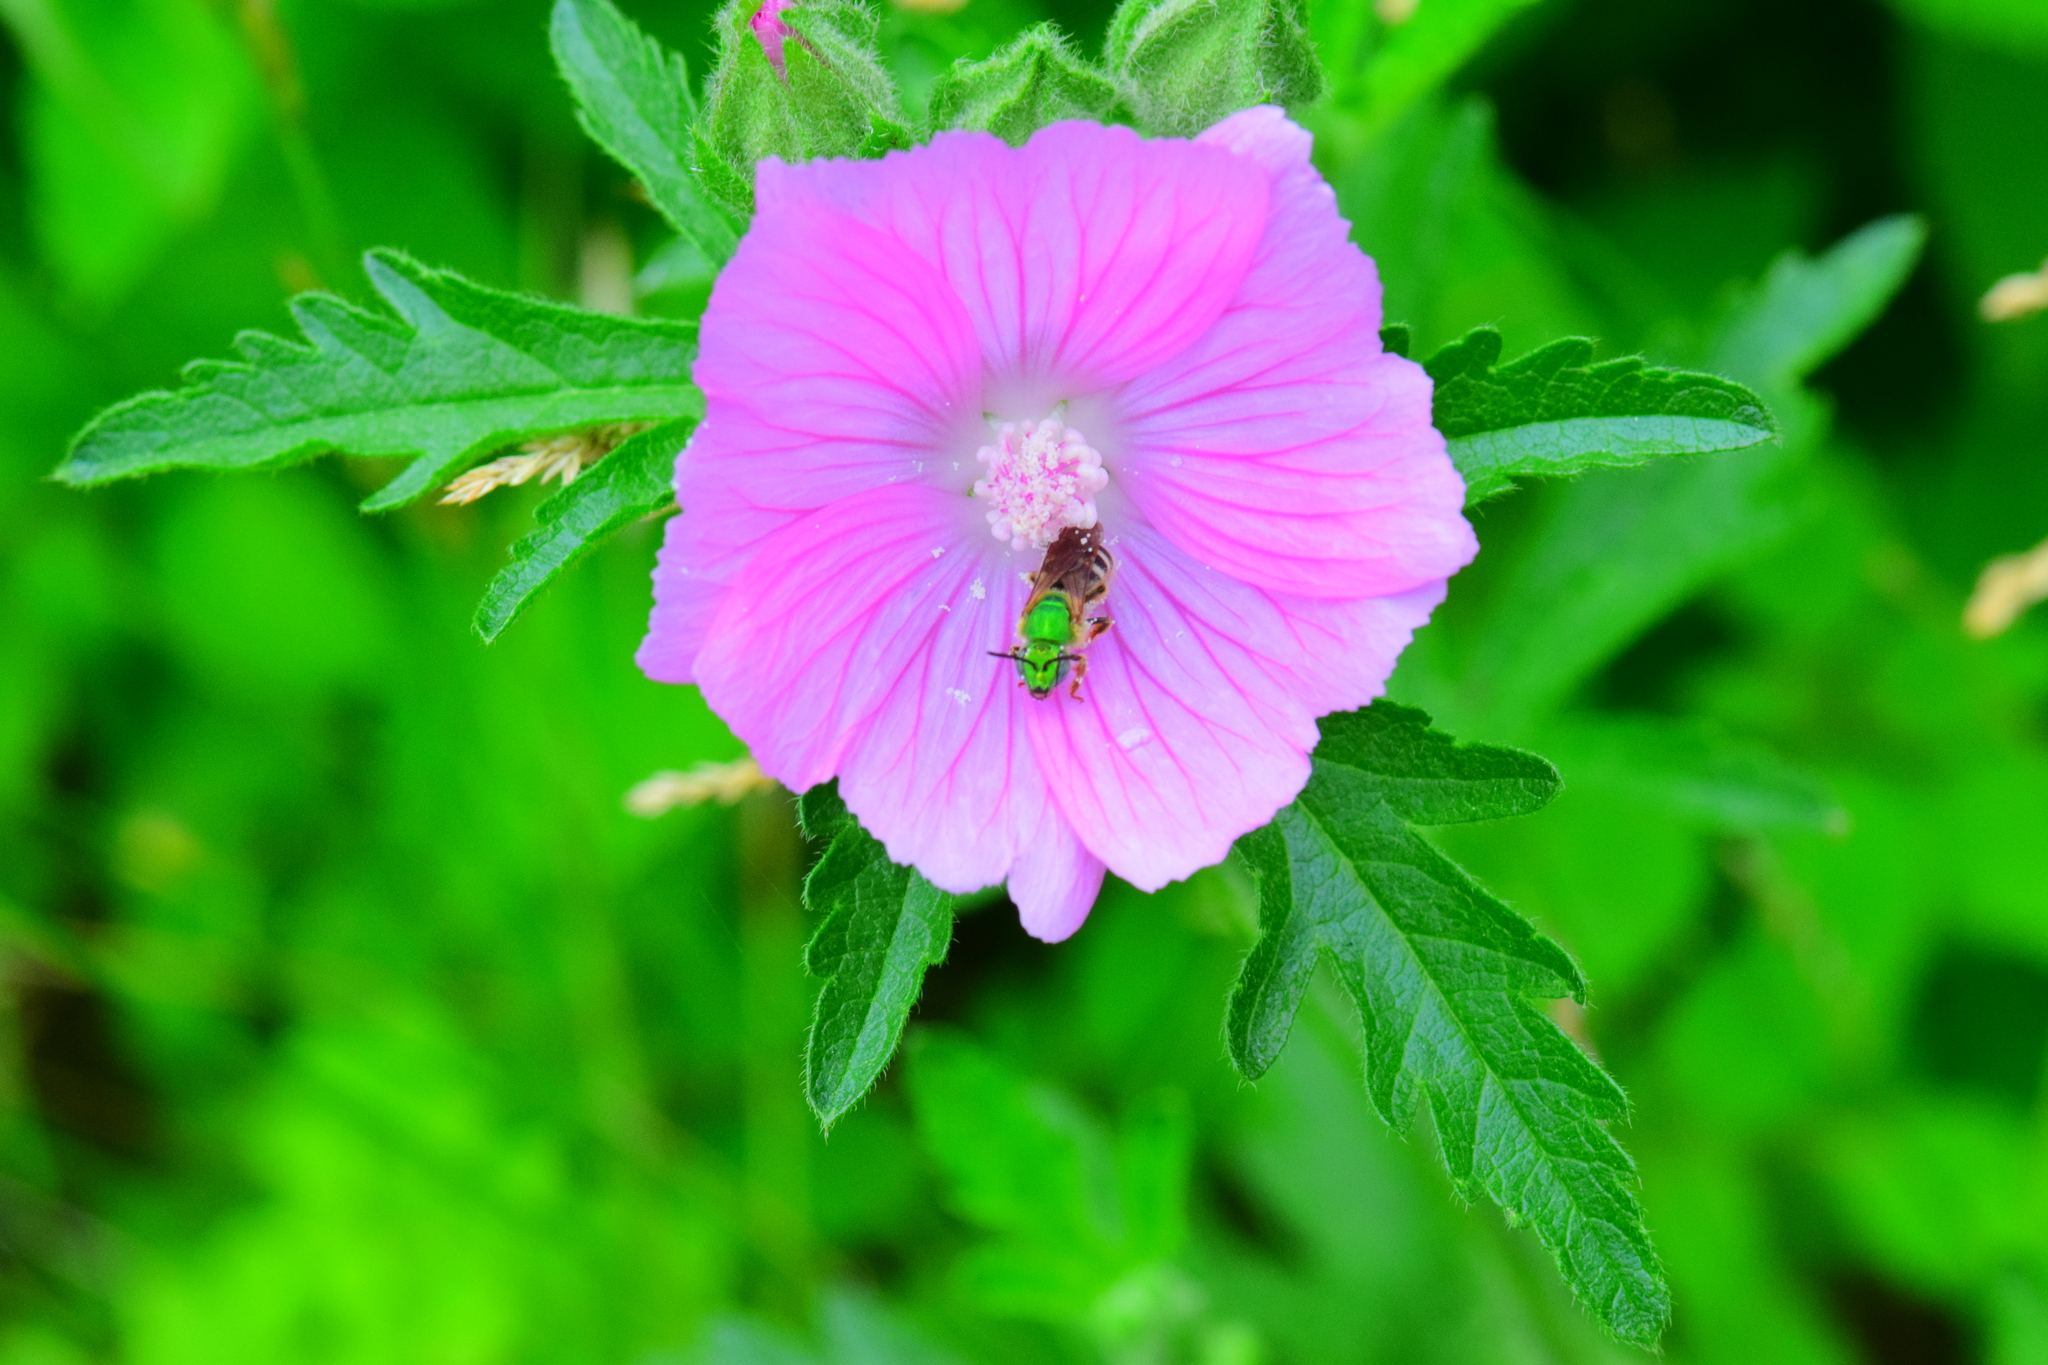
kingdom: Animalia
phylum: Arthropoda
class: Insecta
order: Hymenoptera
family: Halictidae
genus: Agapostemon
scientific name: Agapostemon virescens
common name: Bicolored striped sweat bee
